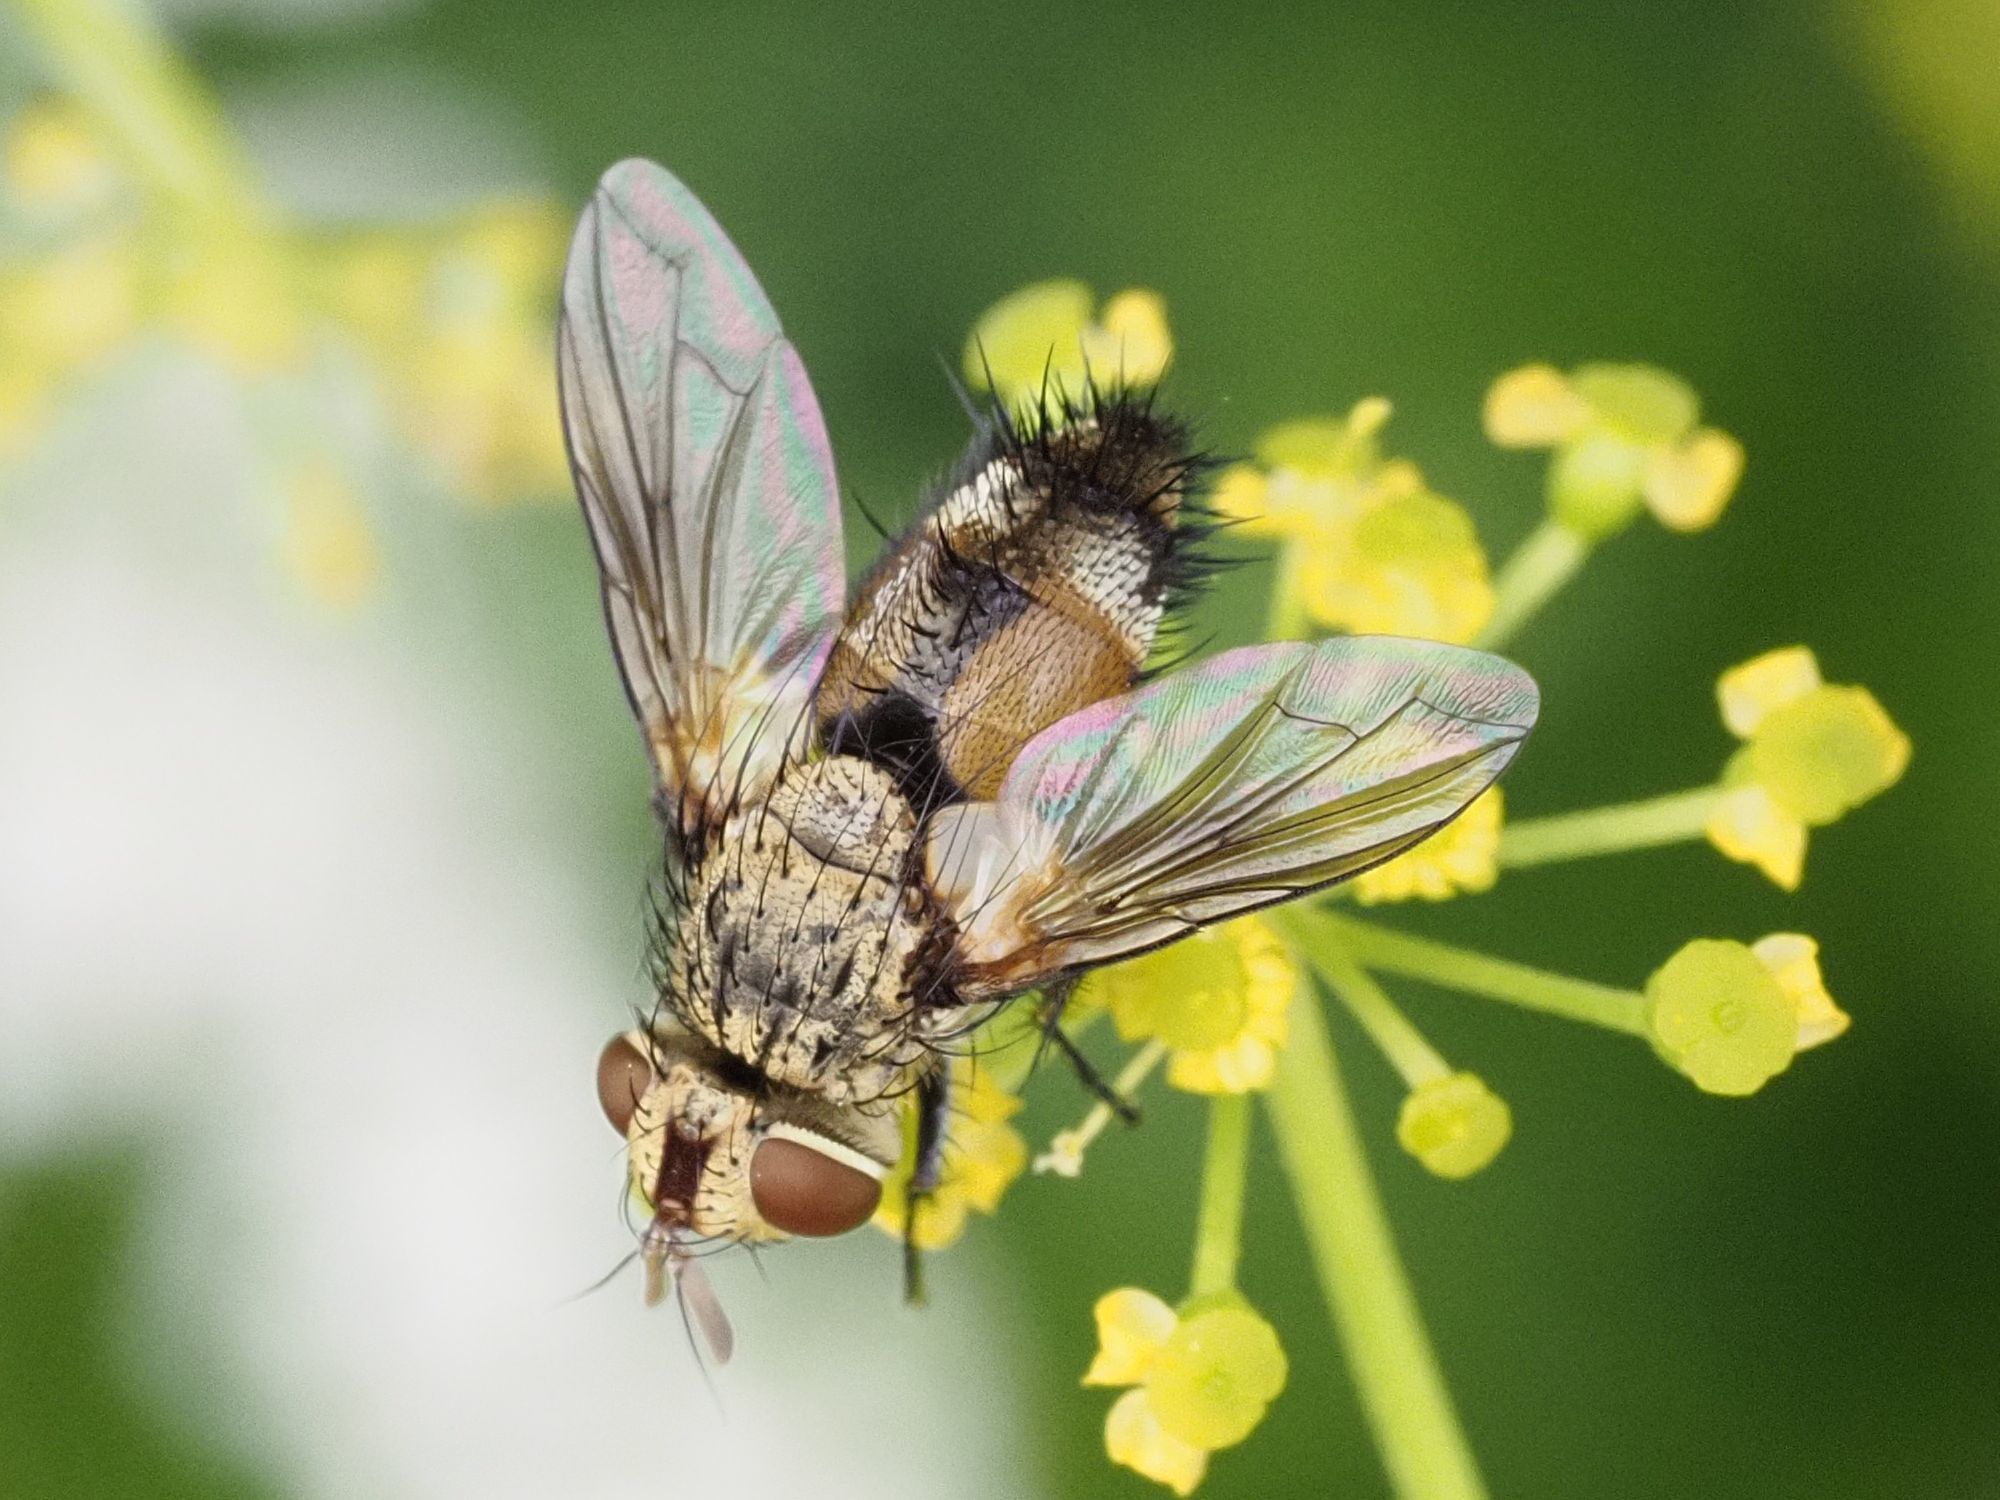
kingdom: Animalia
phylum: Arthropoda
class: Insecta
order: Diptera
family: Tachinidae
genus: Frontina
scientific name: Frontina laeta
